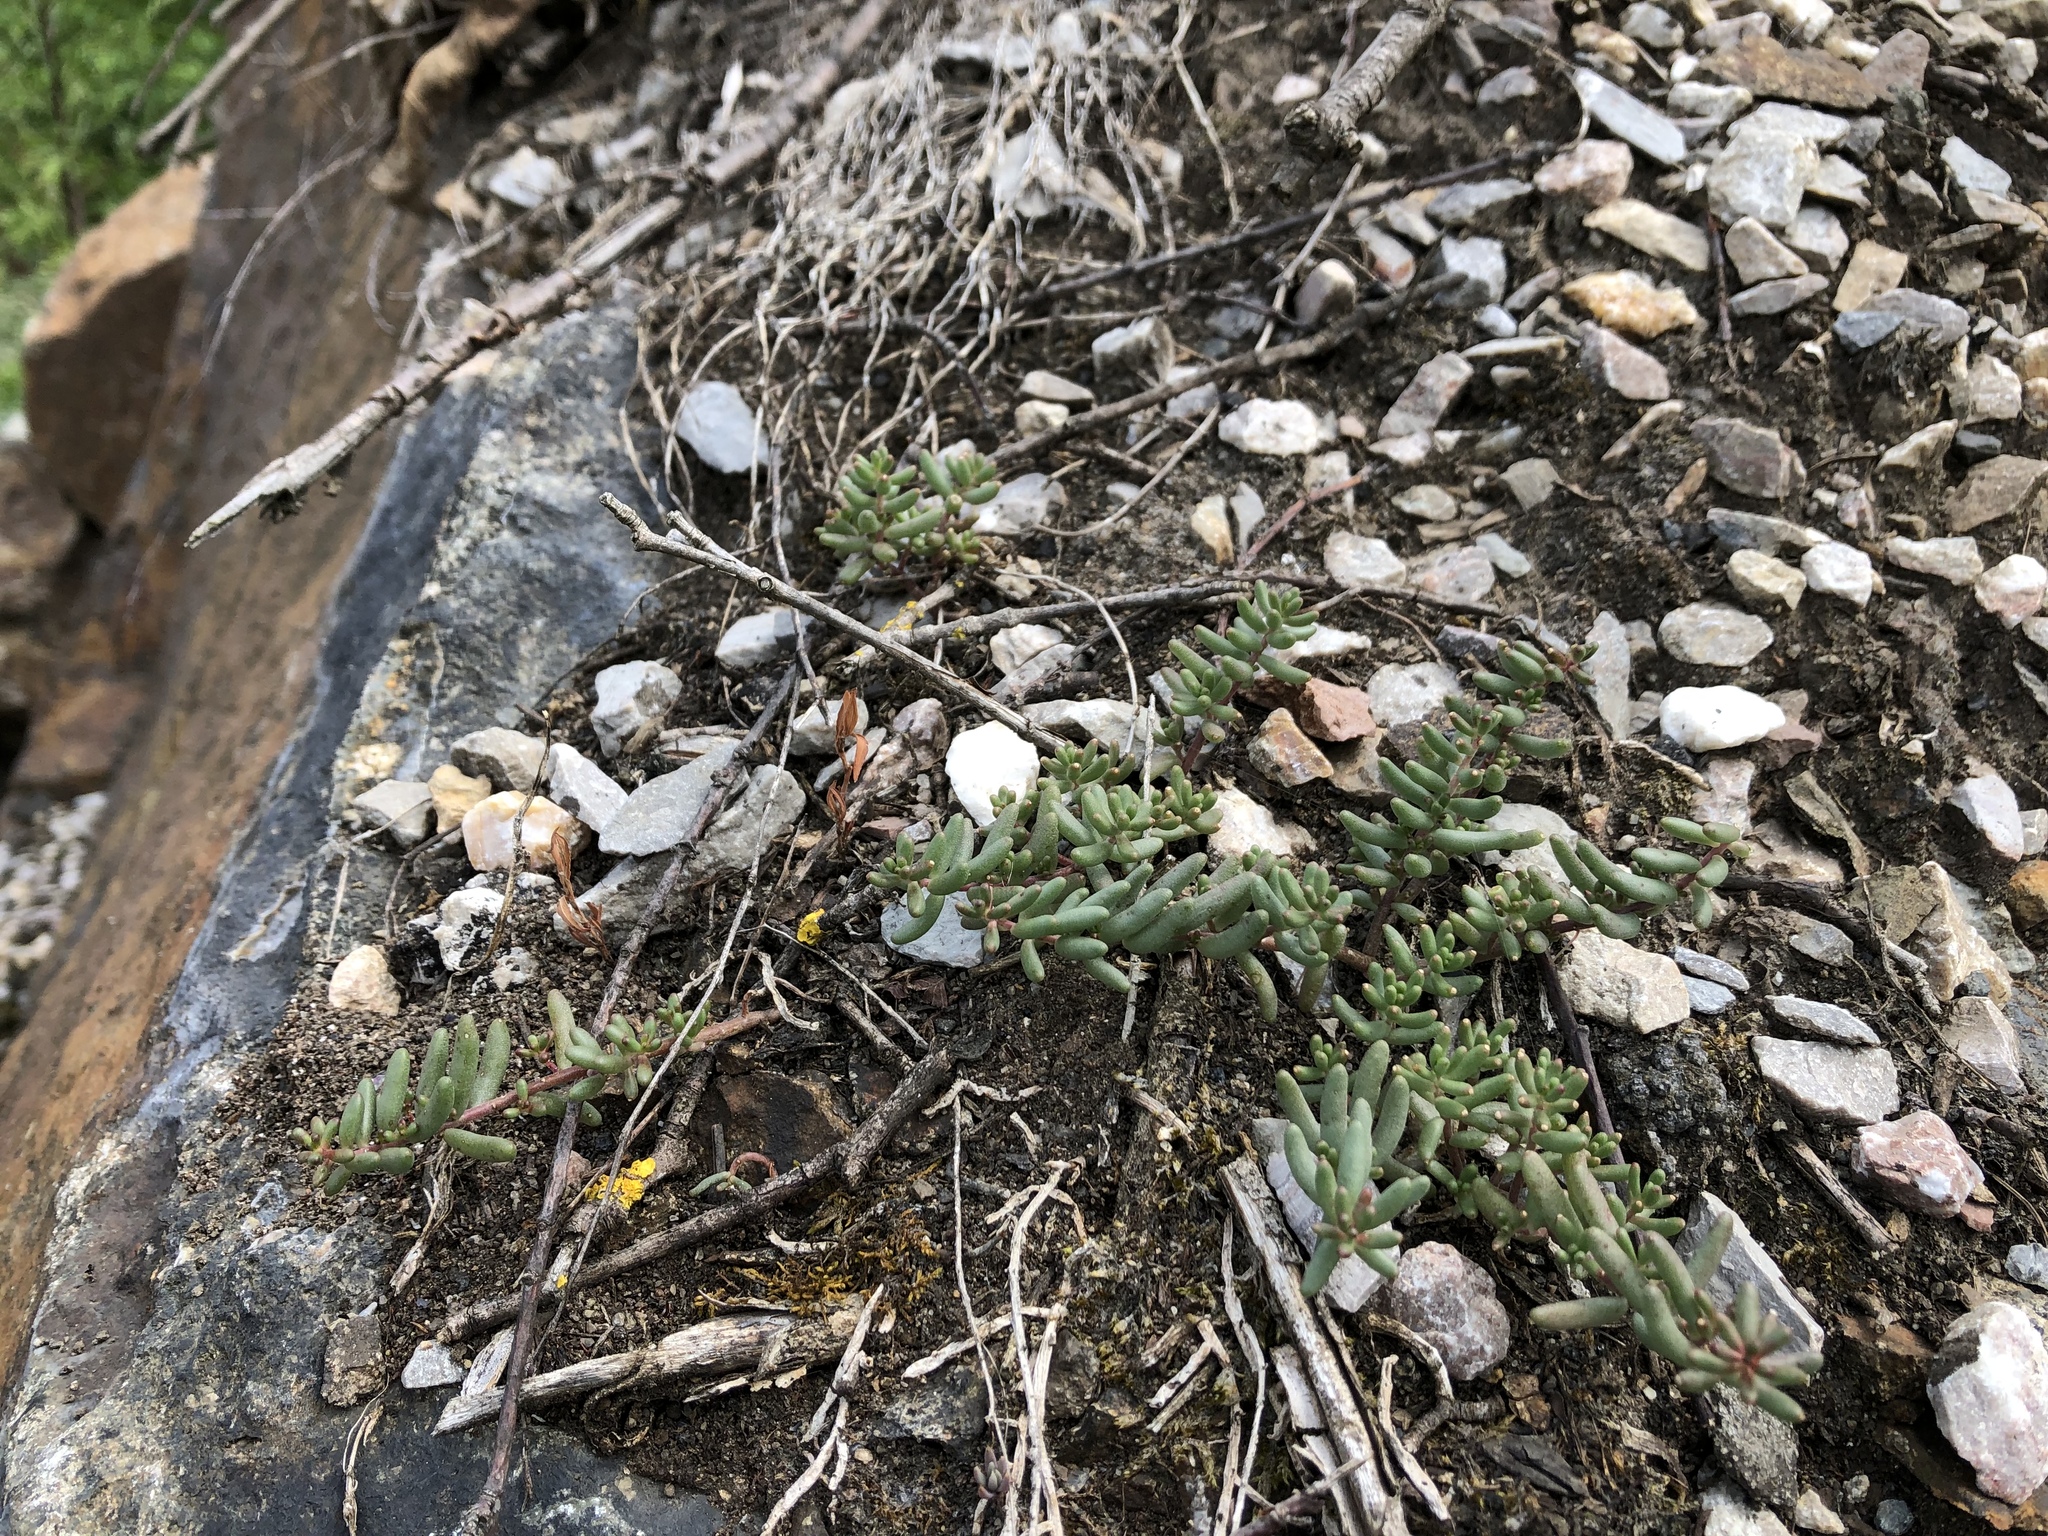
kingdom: Plantae
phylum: Tracheophyta
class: Magnoliopsida
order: Saxifragales
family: Crassulaceae
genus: Sedum
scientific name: Sedum album
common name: White stonecrop
